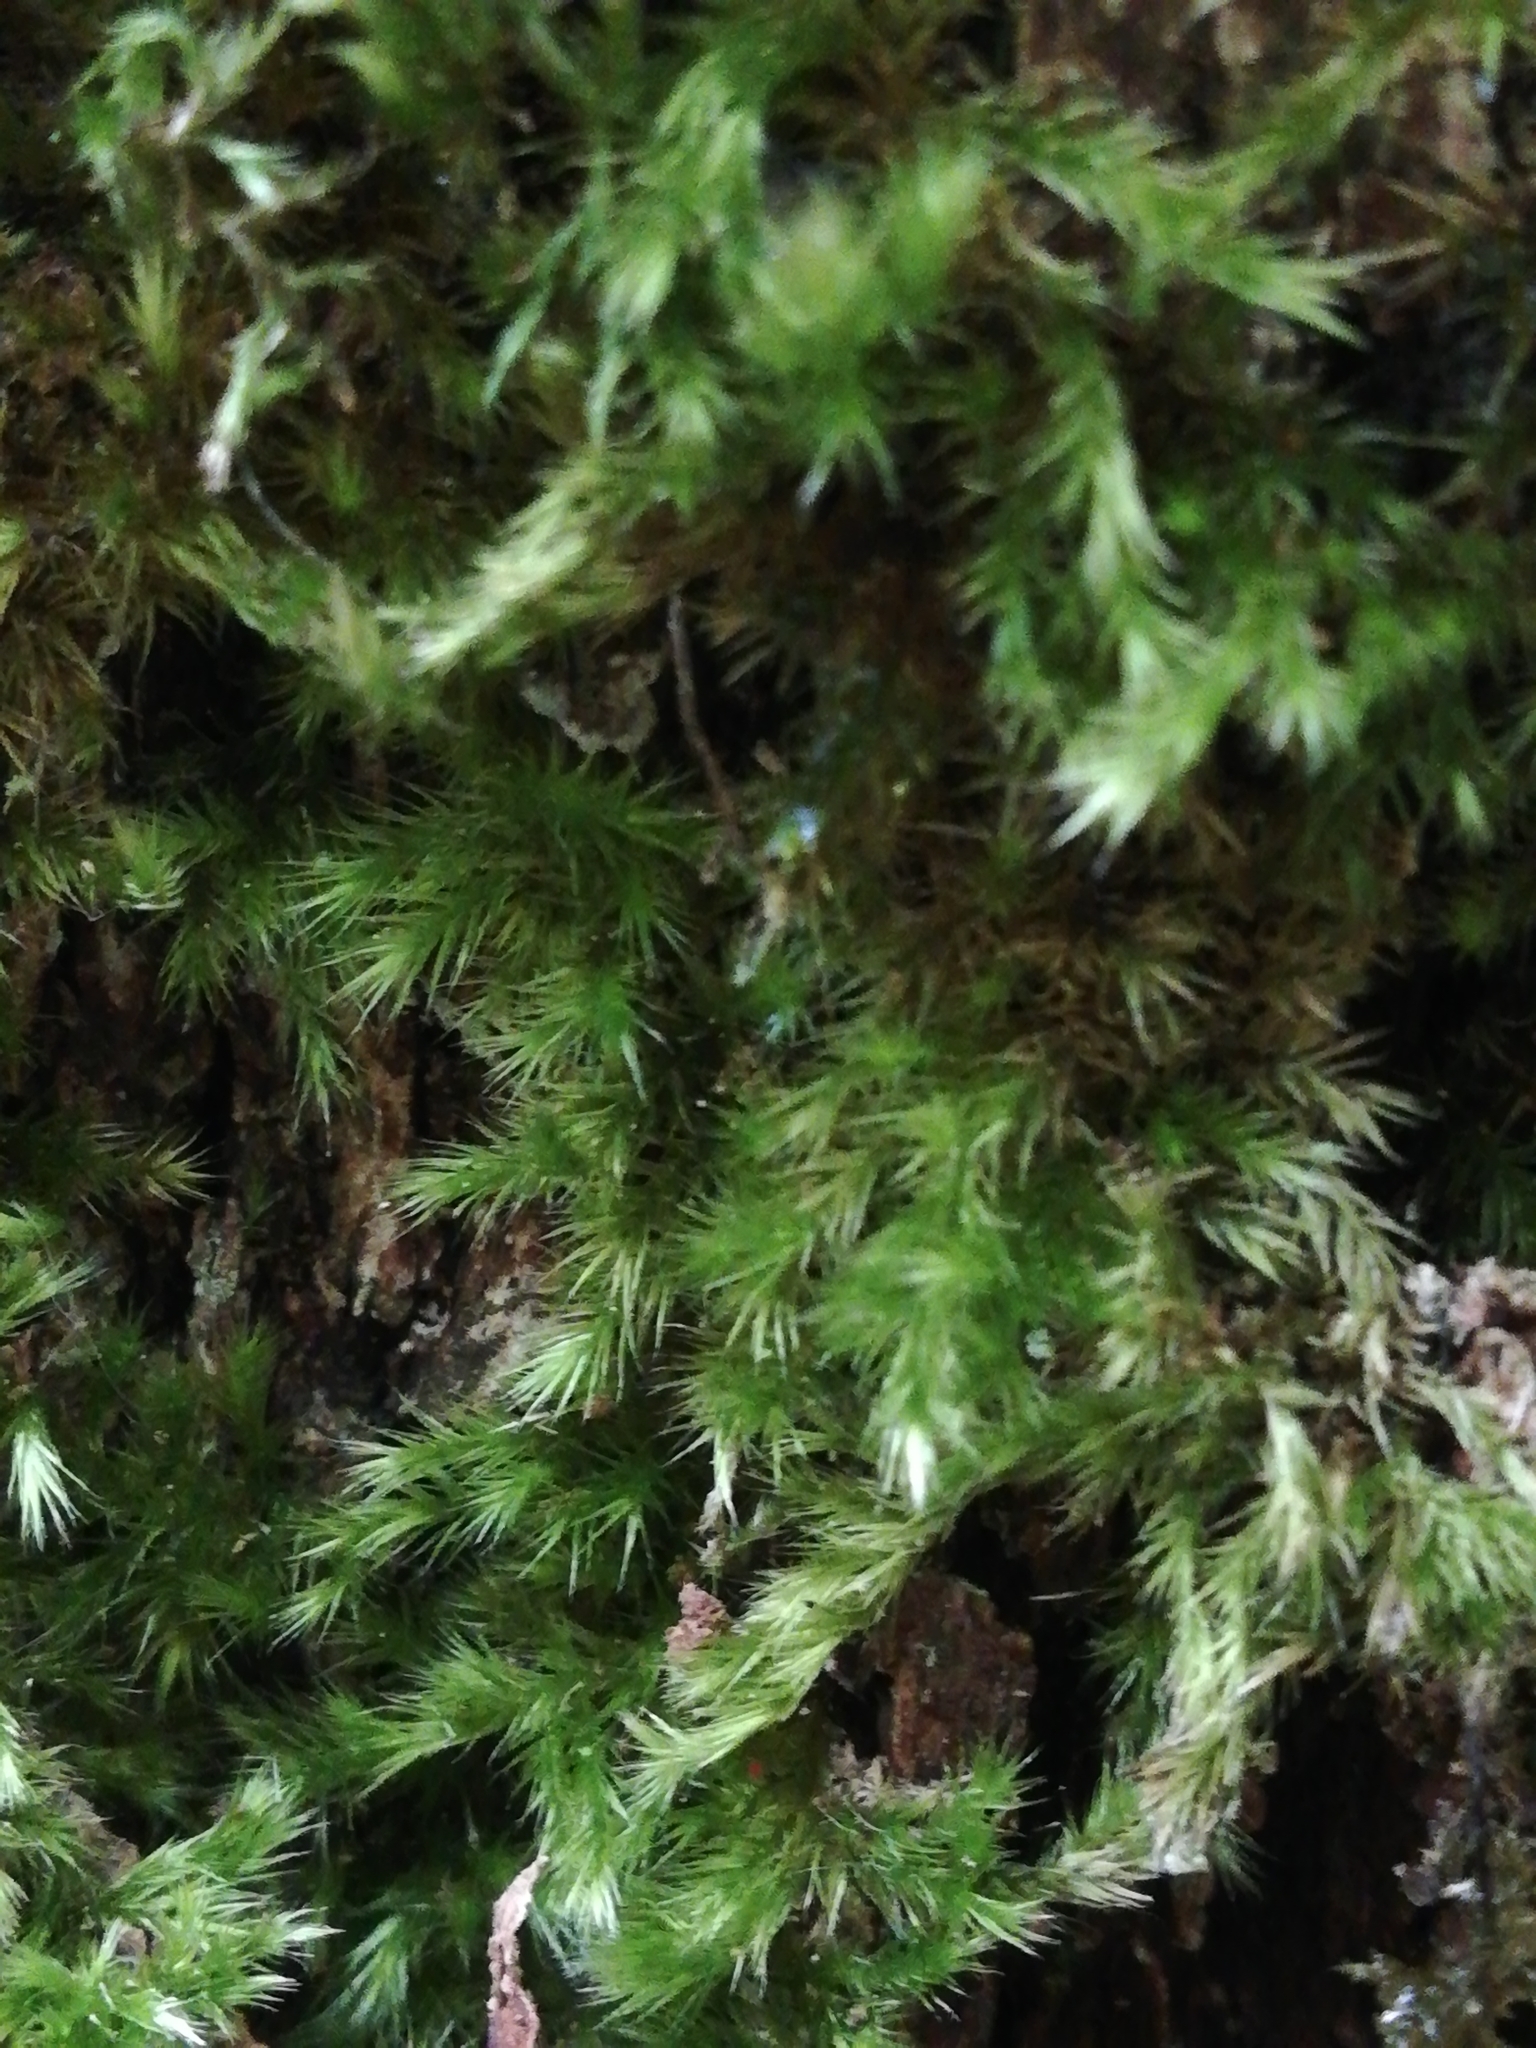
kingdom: Plantae
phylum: Bryophyta
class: Bryopsida
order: Hypnales
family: Brachytheciaceae
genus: Homalothecium
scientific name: Homalothecium sericeum
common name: Silky wall feather-moss
